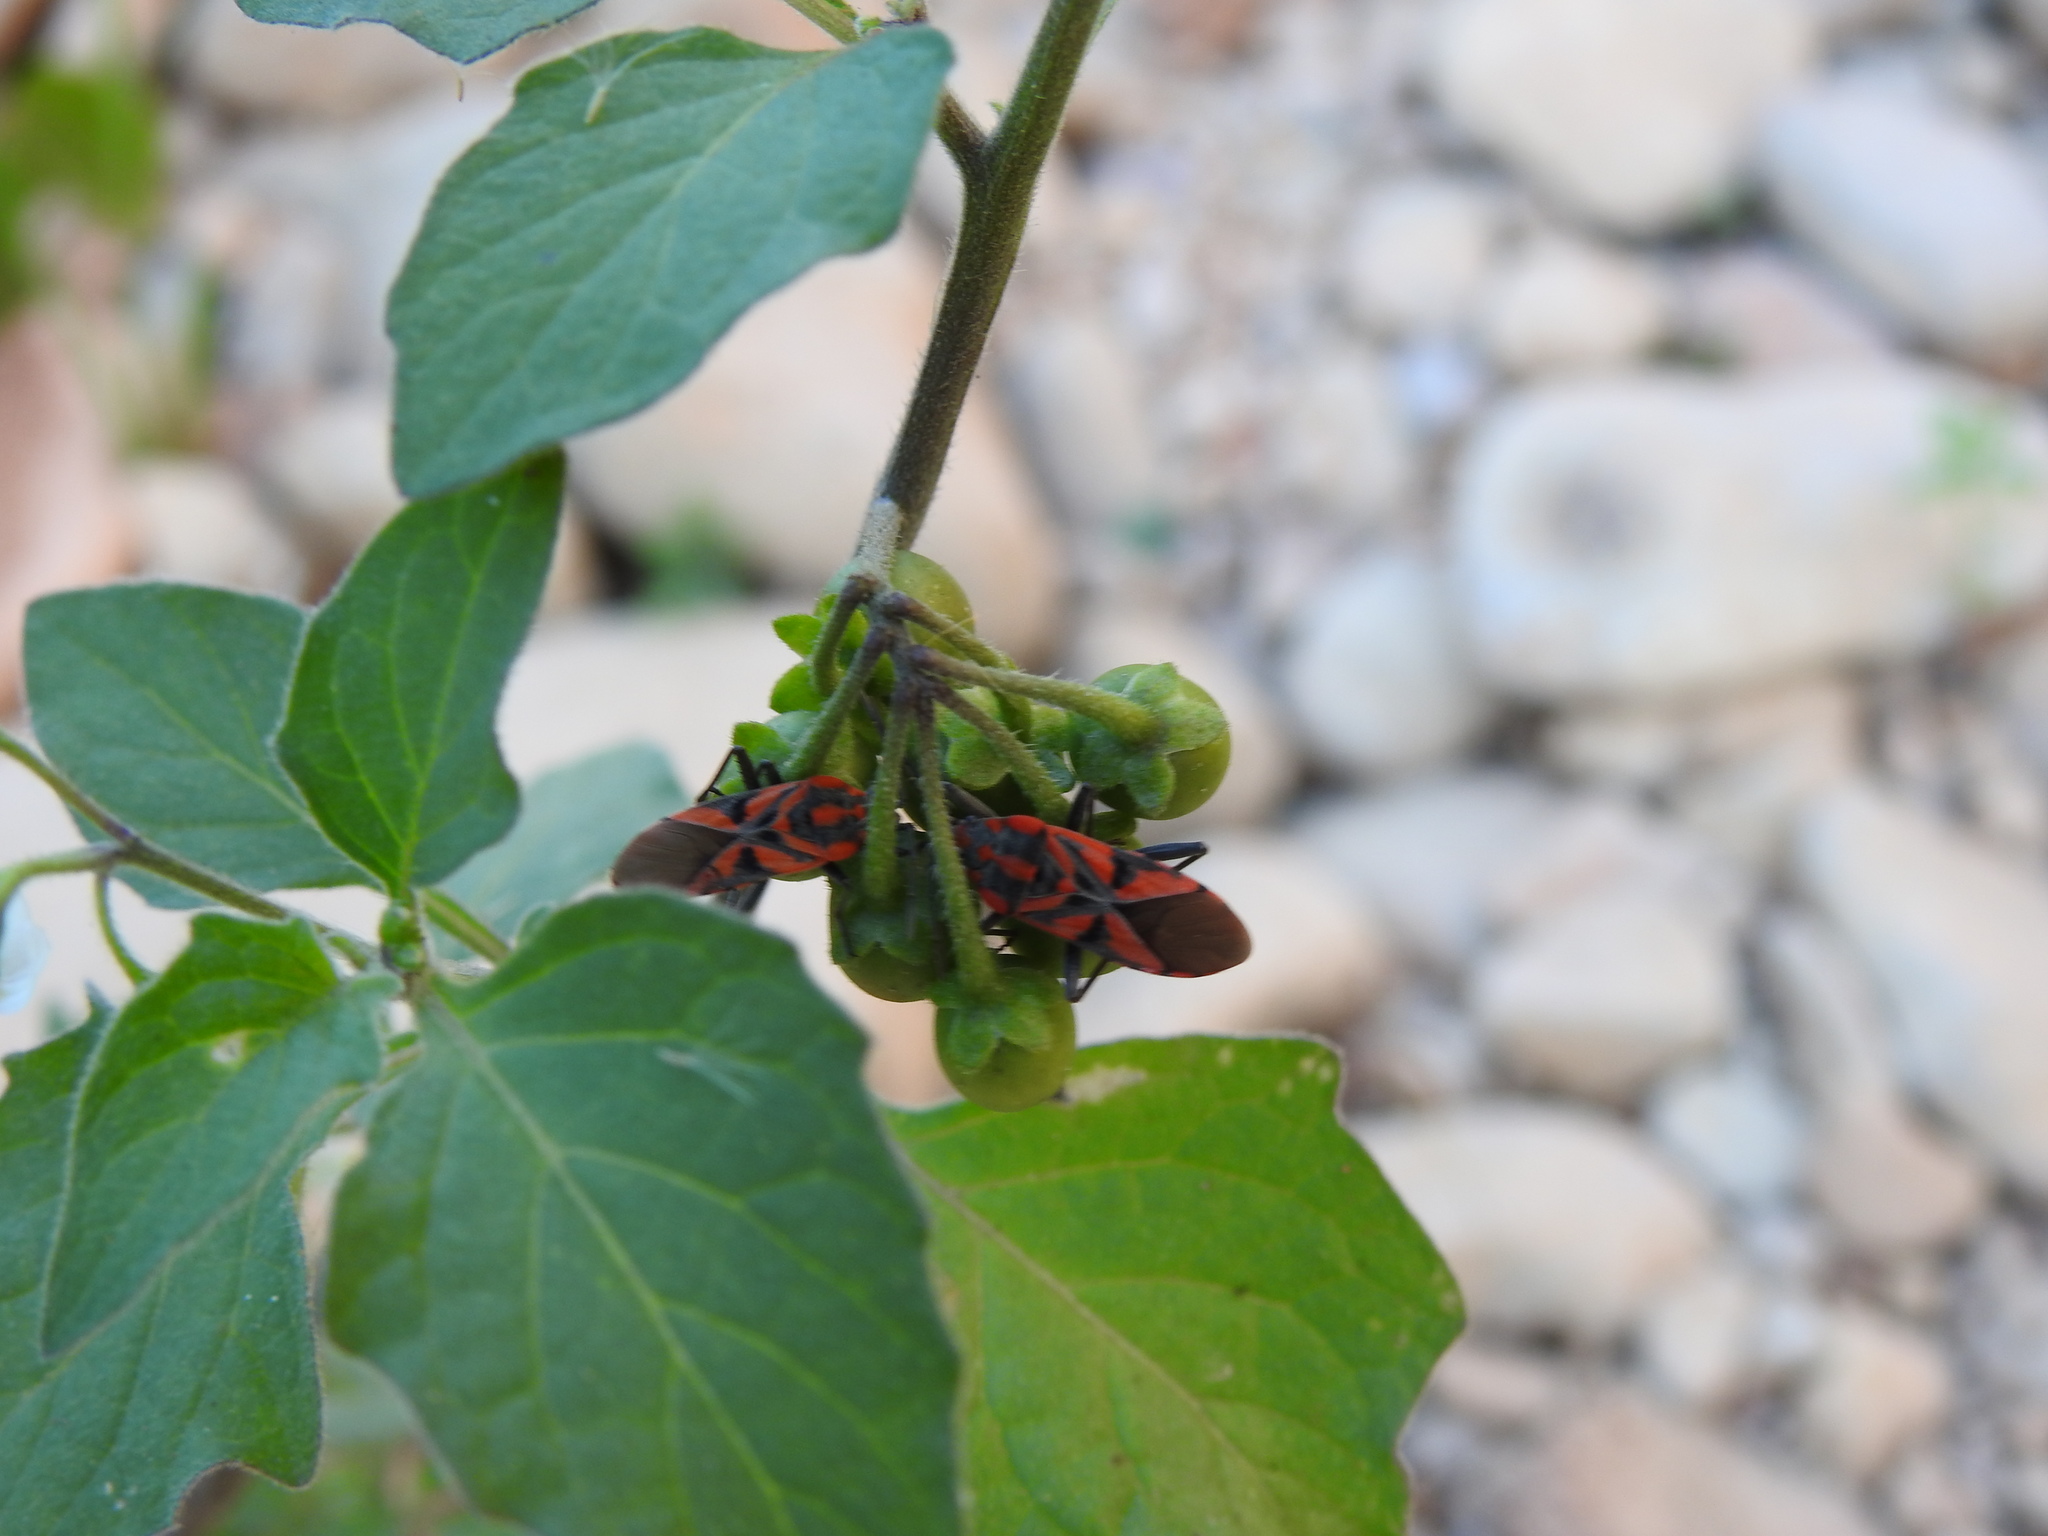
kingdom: Plantae
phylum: Tracheophyta
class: Magnoliopsida
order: Solanales
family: Solanaceae
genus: Solanum
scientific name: Solanum nigrum
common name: Black nightshade
